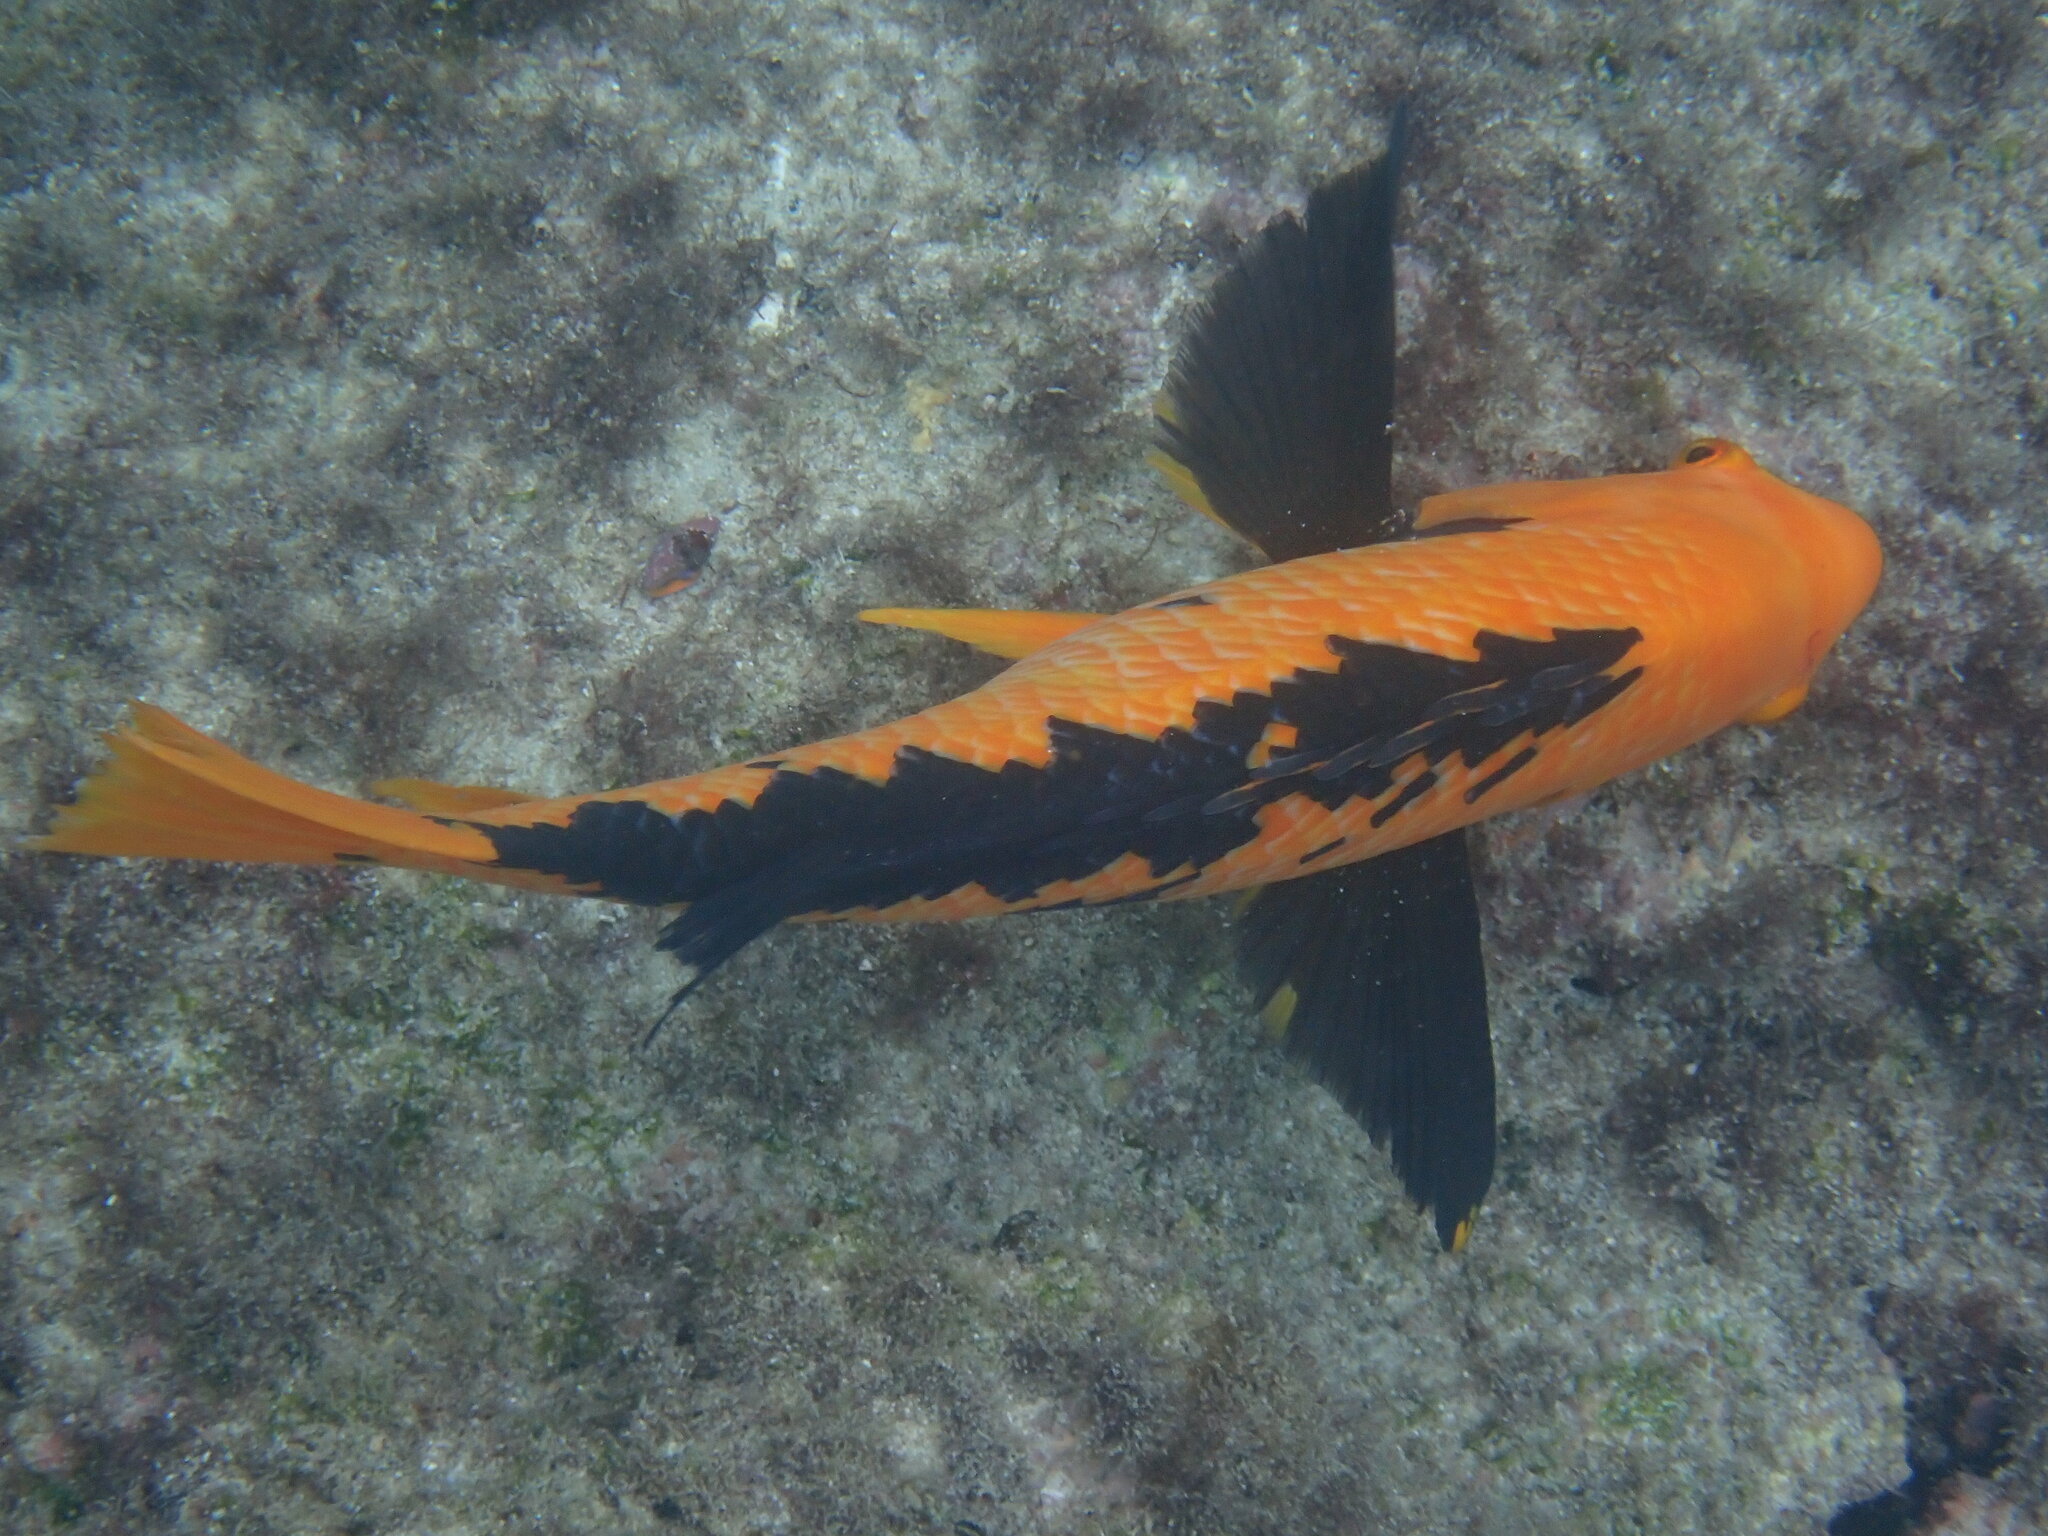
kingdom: Animalia
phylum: Chordata
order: Perciformes
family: Labridae
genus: Bodianus
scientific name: Bodianus eclancheri
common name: Harlequin wrasse
